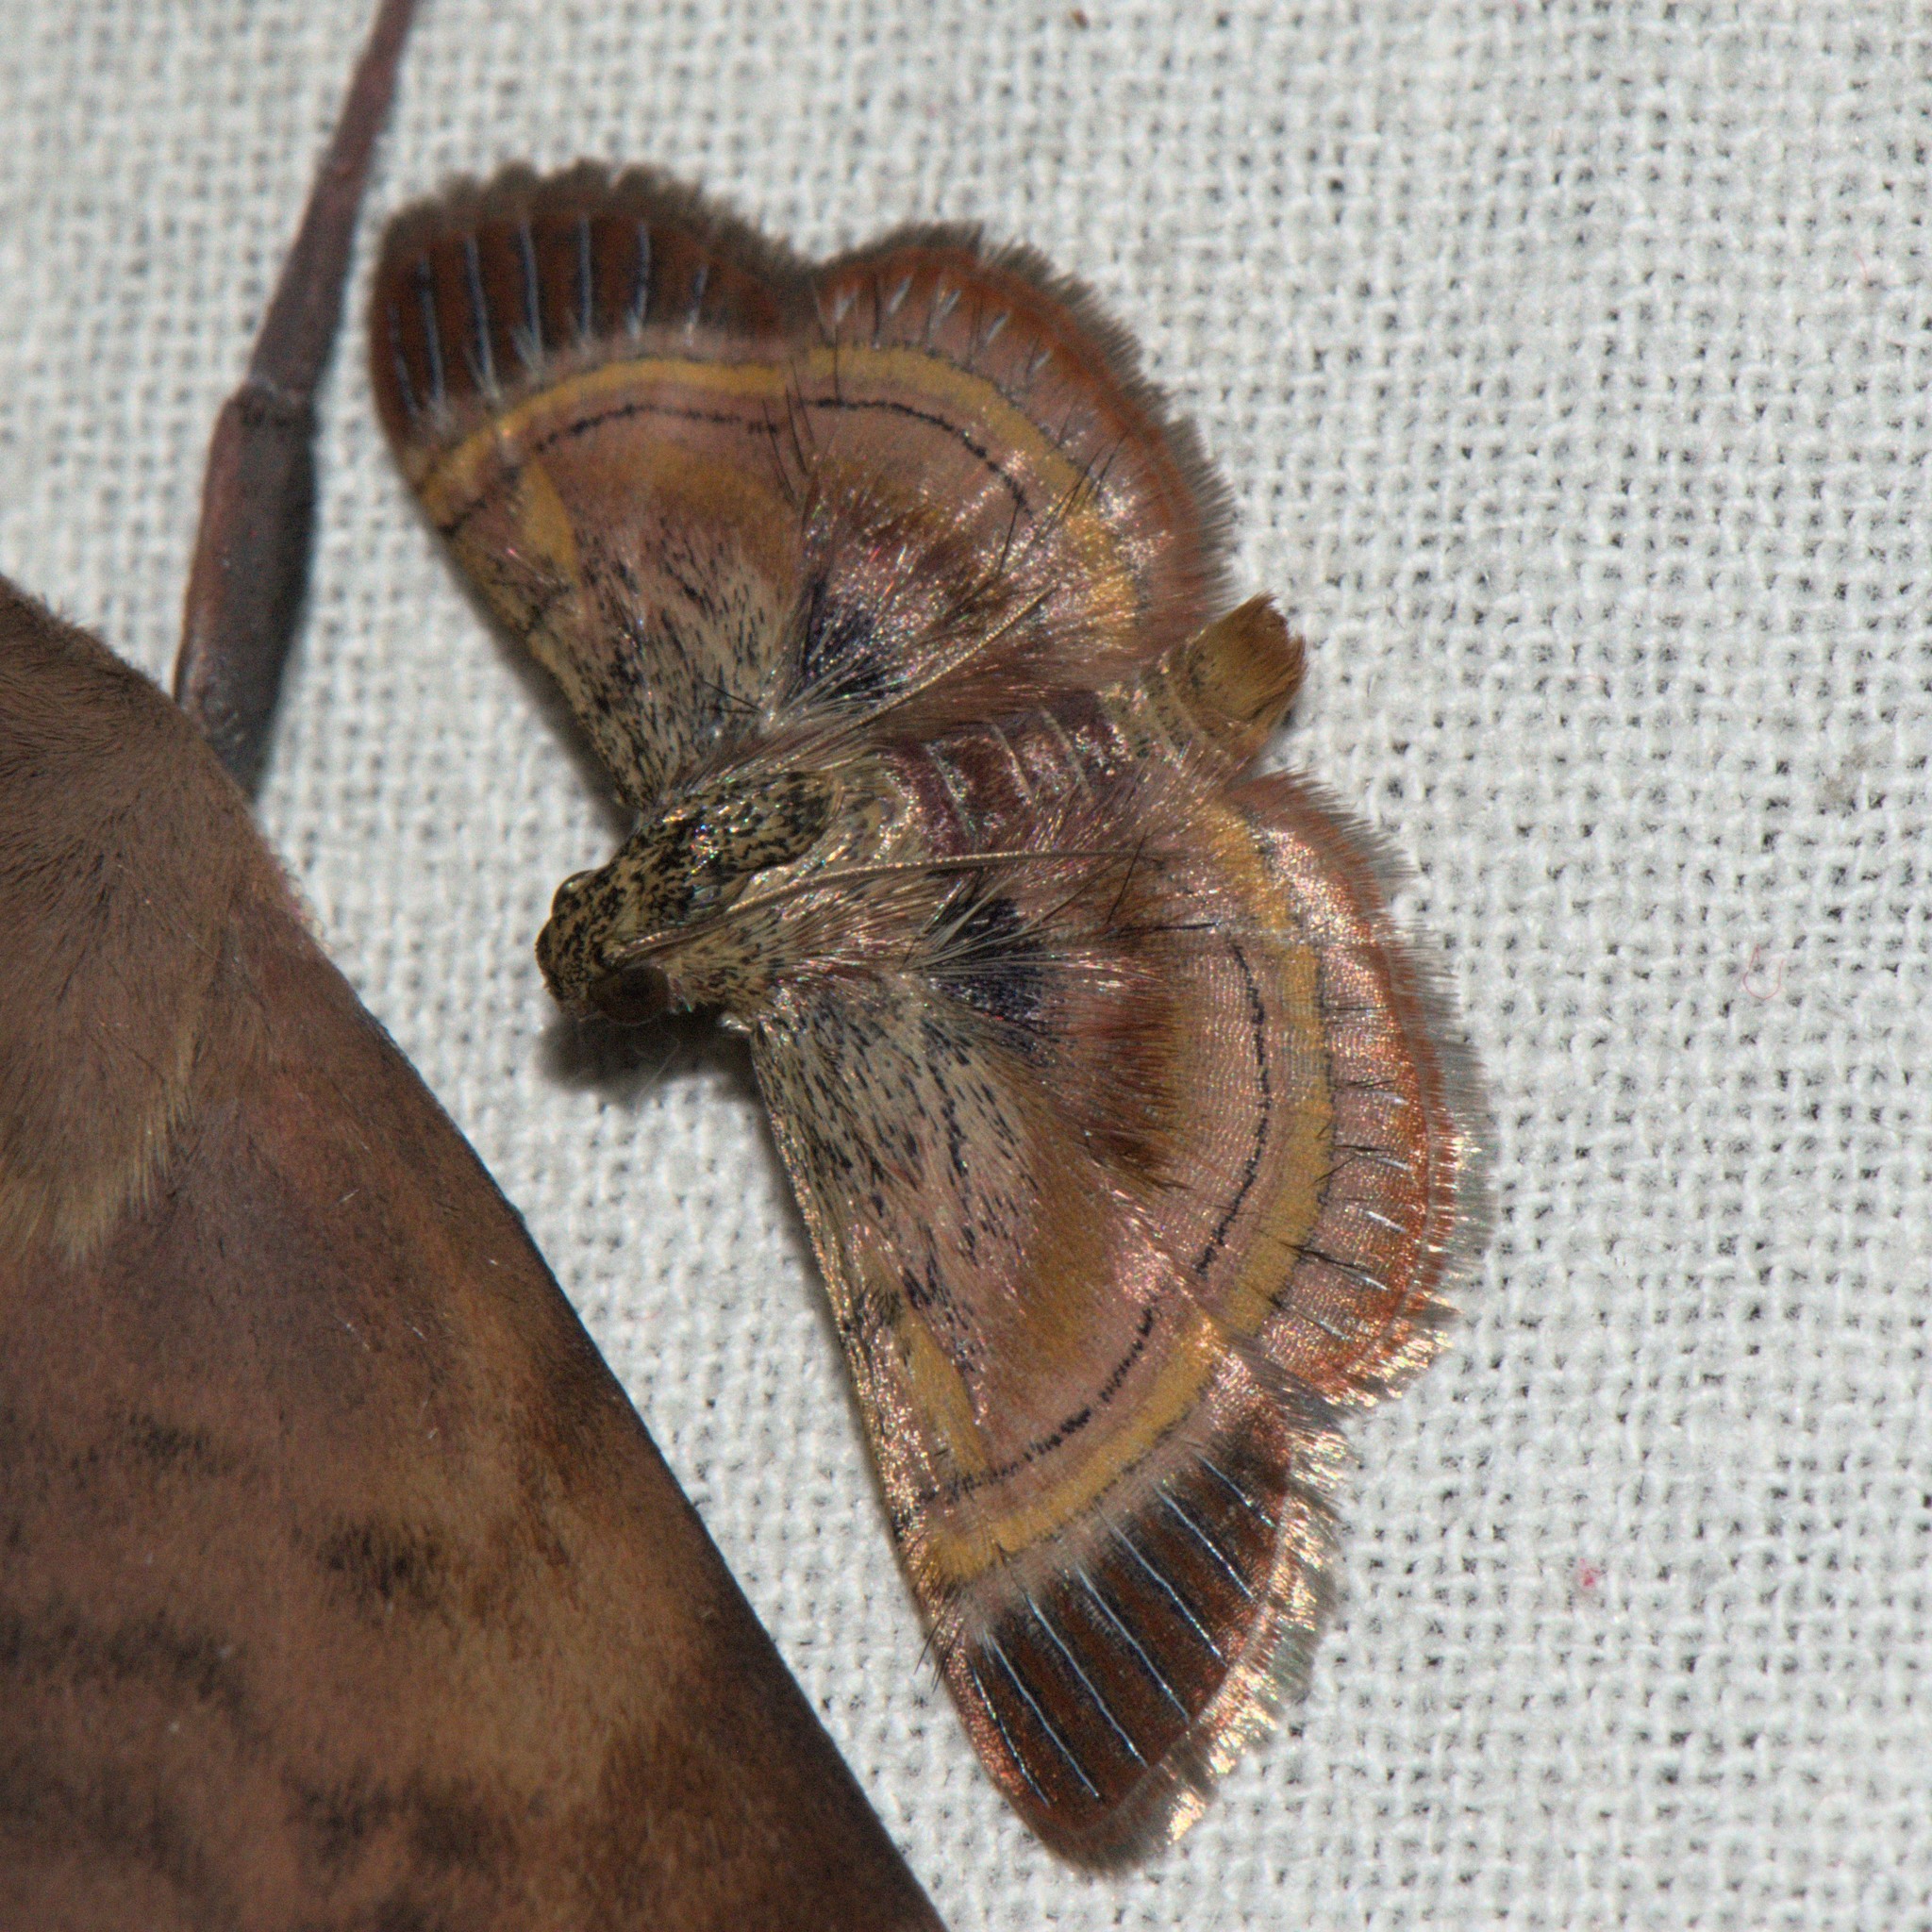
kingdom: Animalia
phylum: Arthropoda
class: Insecta
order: Lepidoptera
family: Pyralidae
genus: Lista
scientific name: Lista ficki
